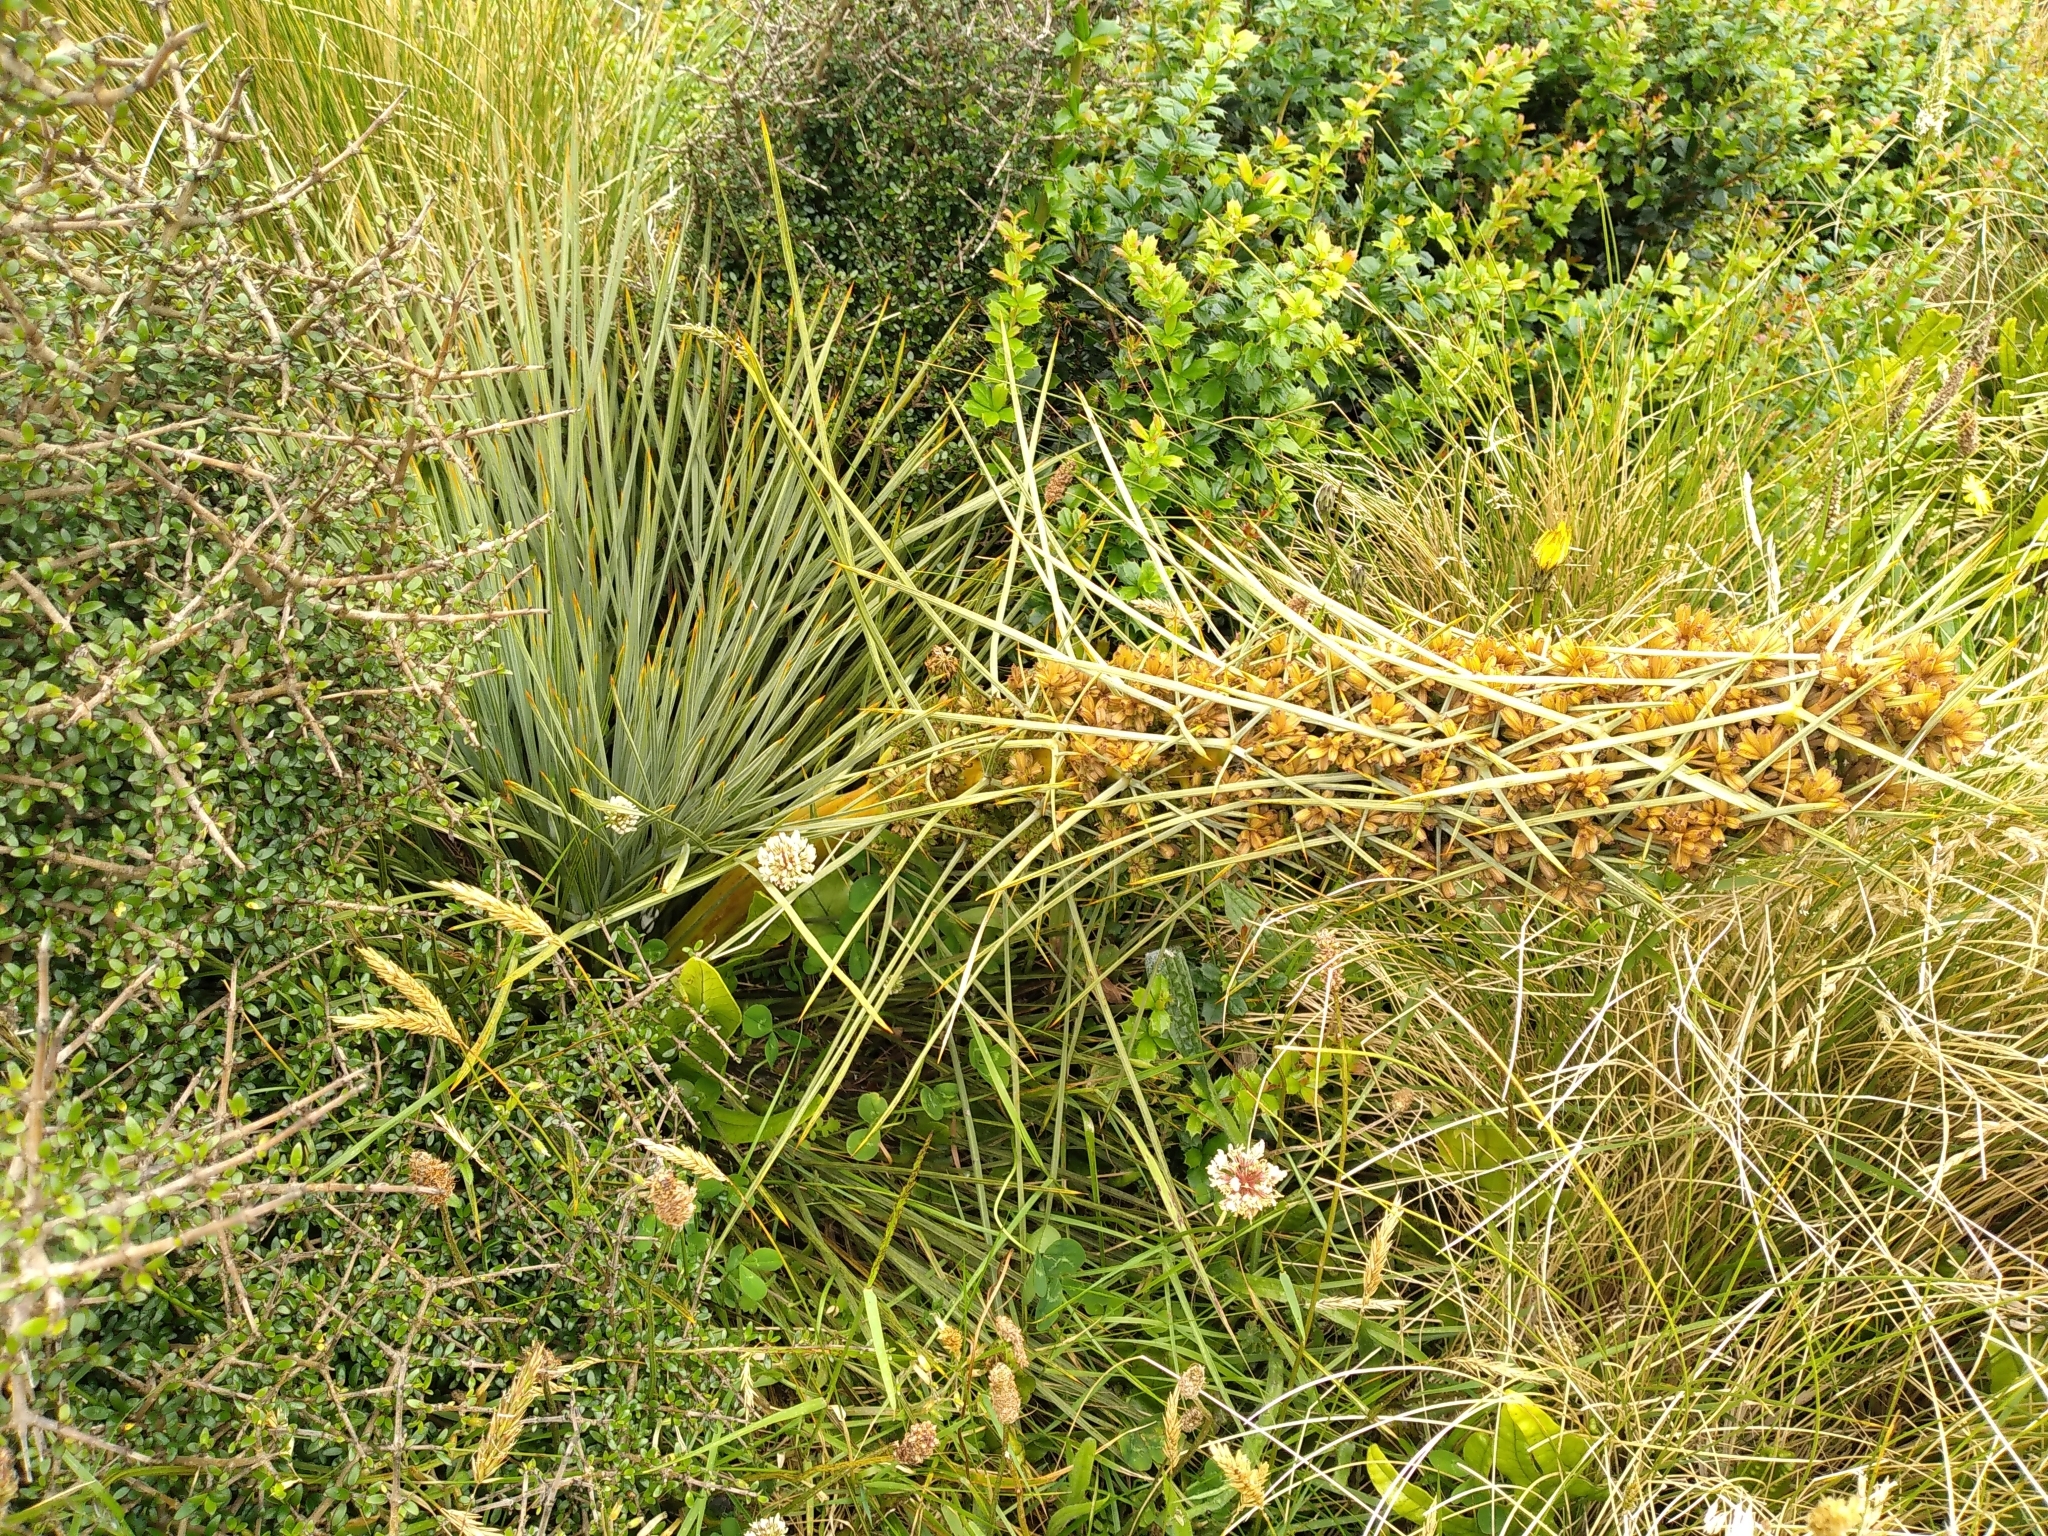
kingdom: Plantae
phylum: Tracheophyta
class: Magnoliopsida
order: Apiales
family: Apiaceae
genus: Aciphylla
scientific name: Aciphylla squarrosa
